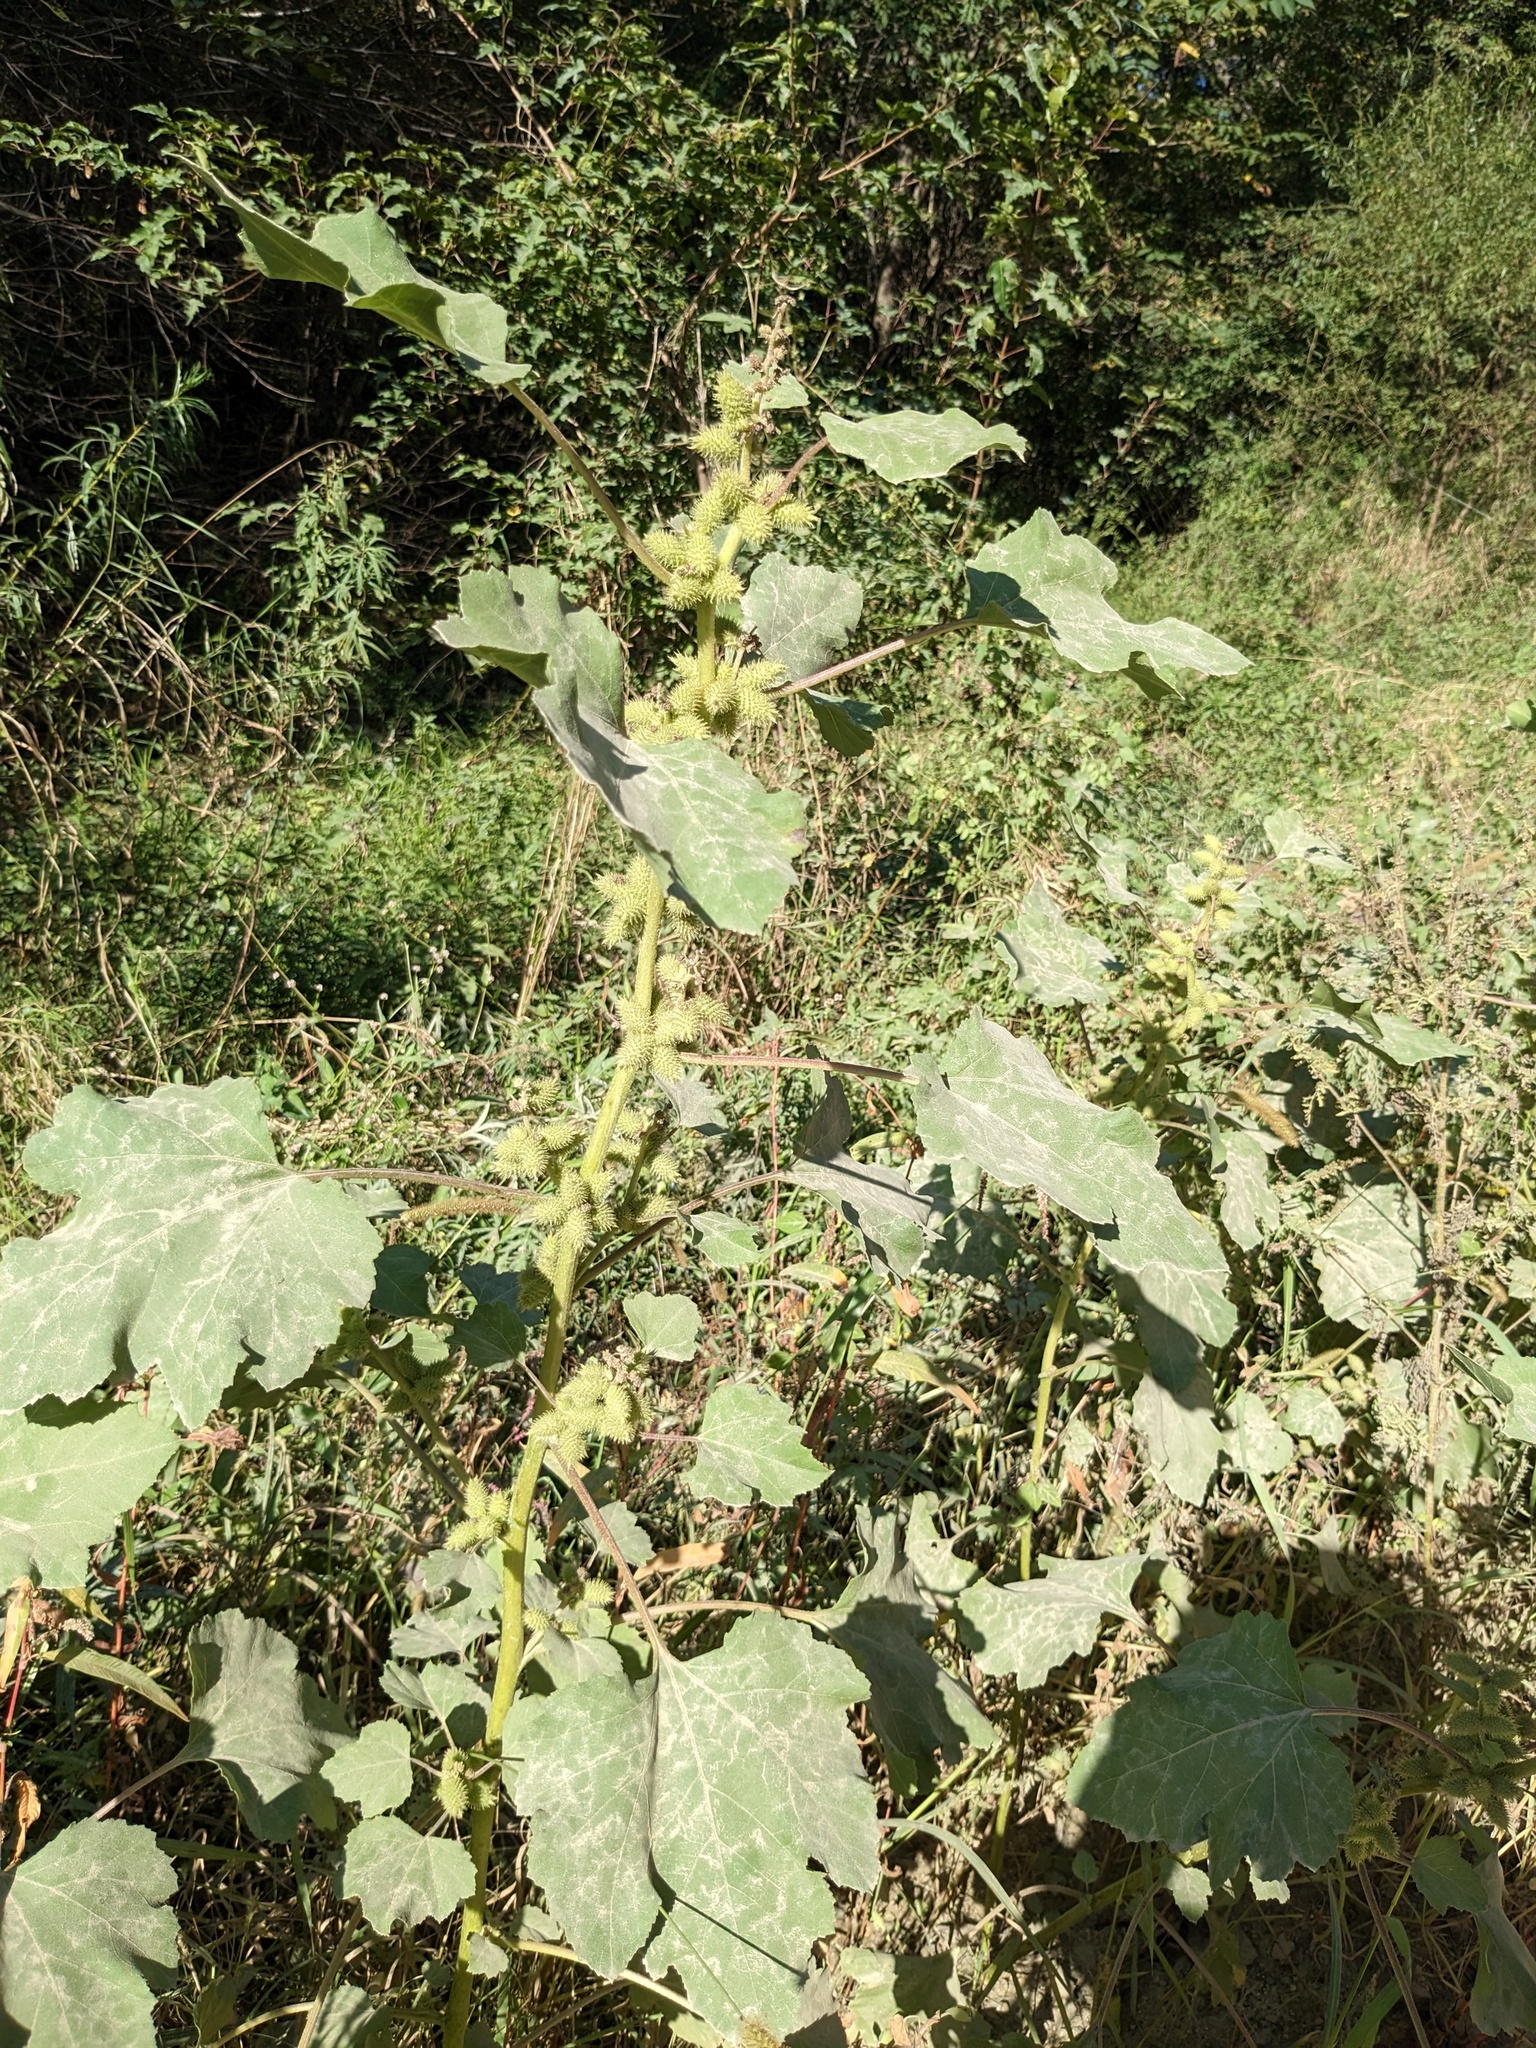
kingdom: Plantae
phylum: Tracheophyta
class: Magnoliopsida
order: Asterales
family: Asteraceae
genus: Xanthium
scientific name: Xanthium orientale
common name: Californian burr
